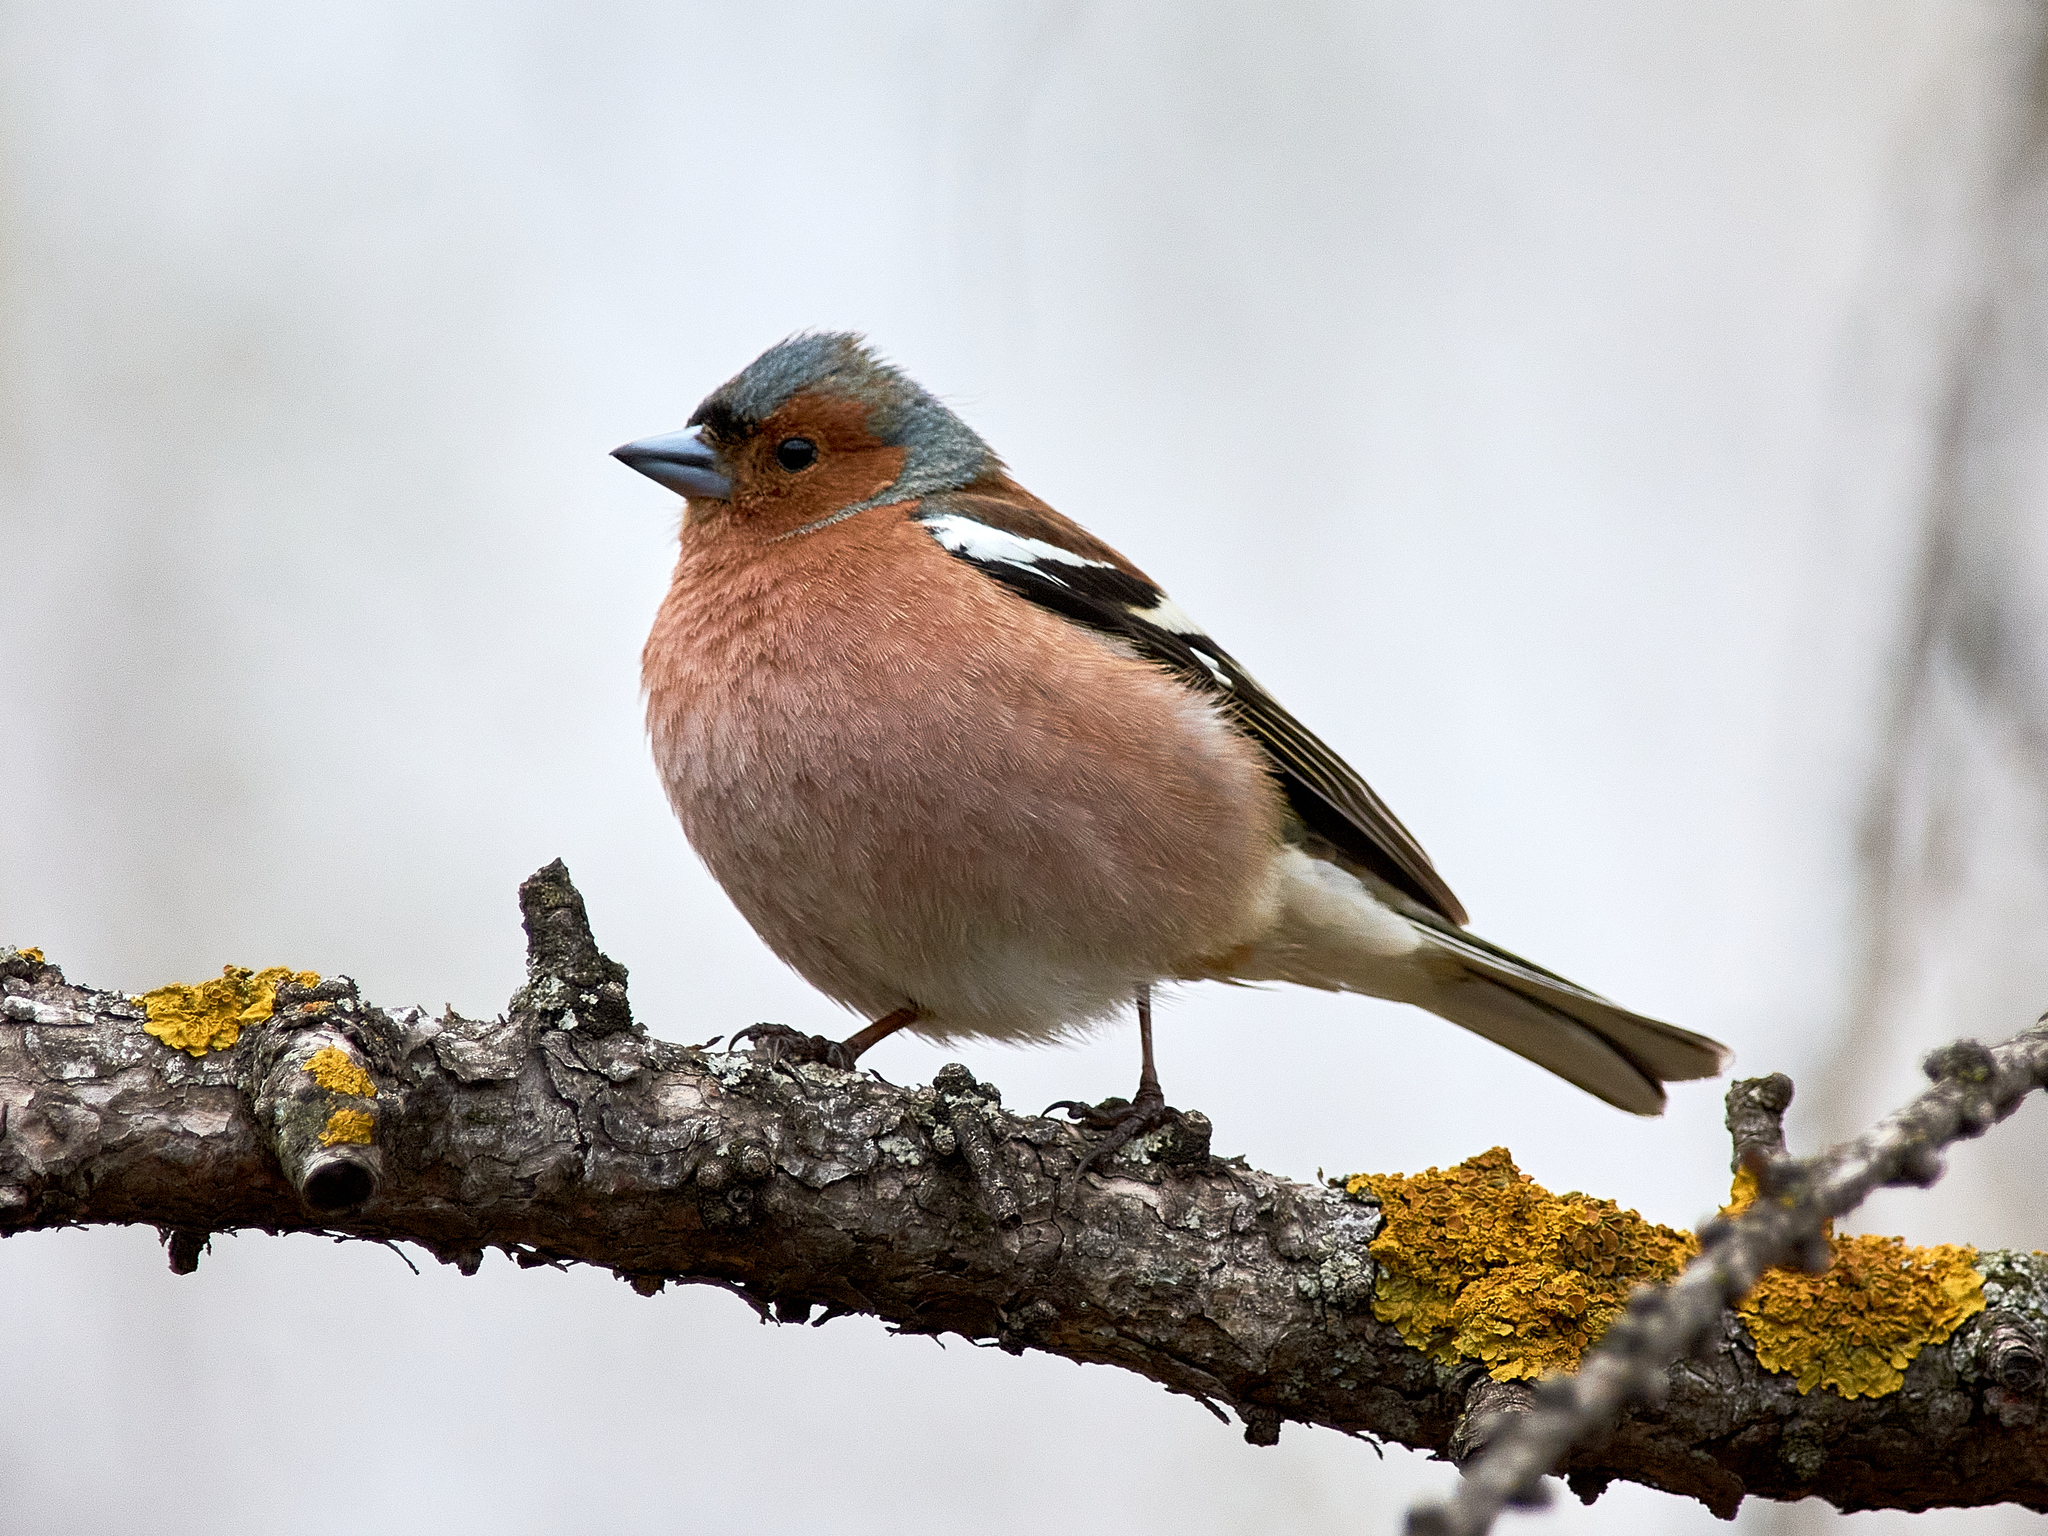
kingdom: Animalia
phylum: Chordata
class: Aves
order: Passeriformes
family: Fringillidae
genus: Fringilla
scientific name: Fringilla coelebs
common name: Common chaffinch
